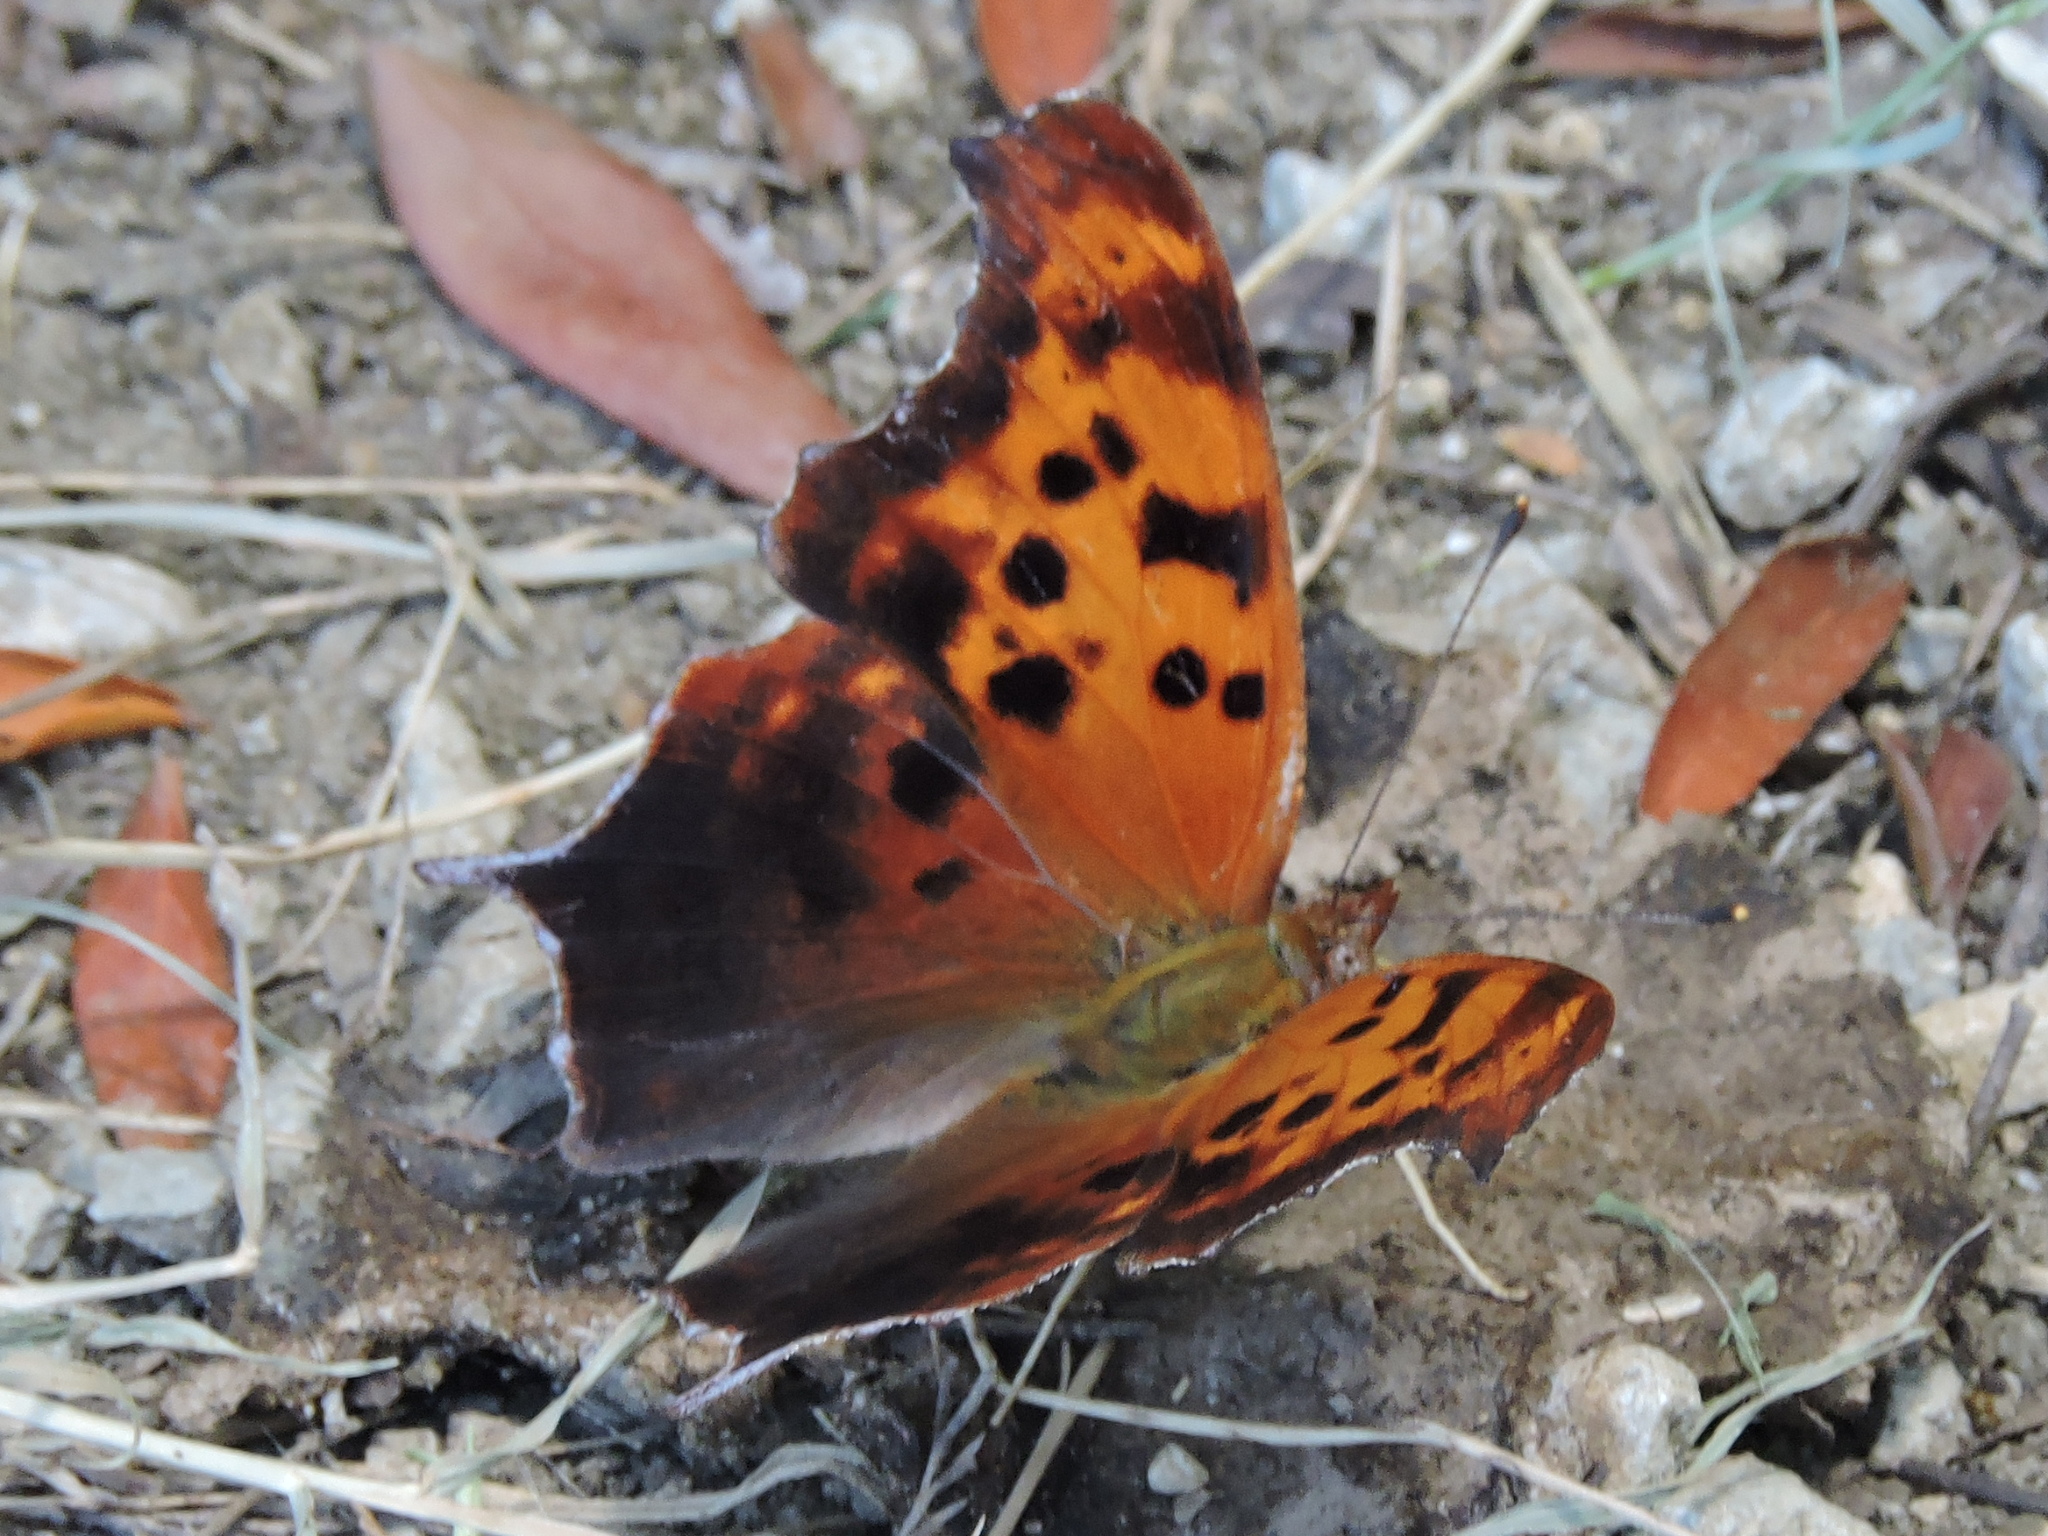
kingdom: Animalia
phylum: Arthropoda
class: Insecta
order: Lepidoptera
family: Nymphalidae
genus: Polygonia
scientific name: Polygonia interrogationis
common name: Question mark
